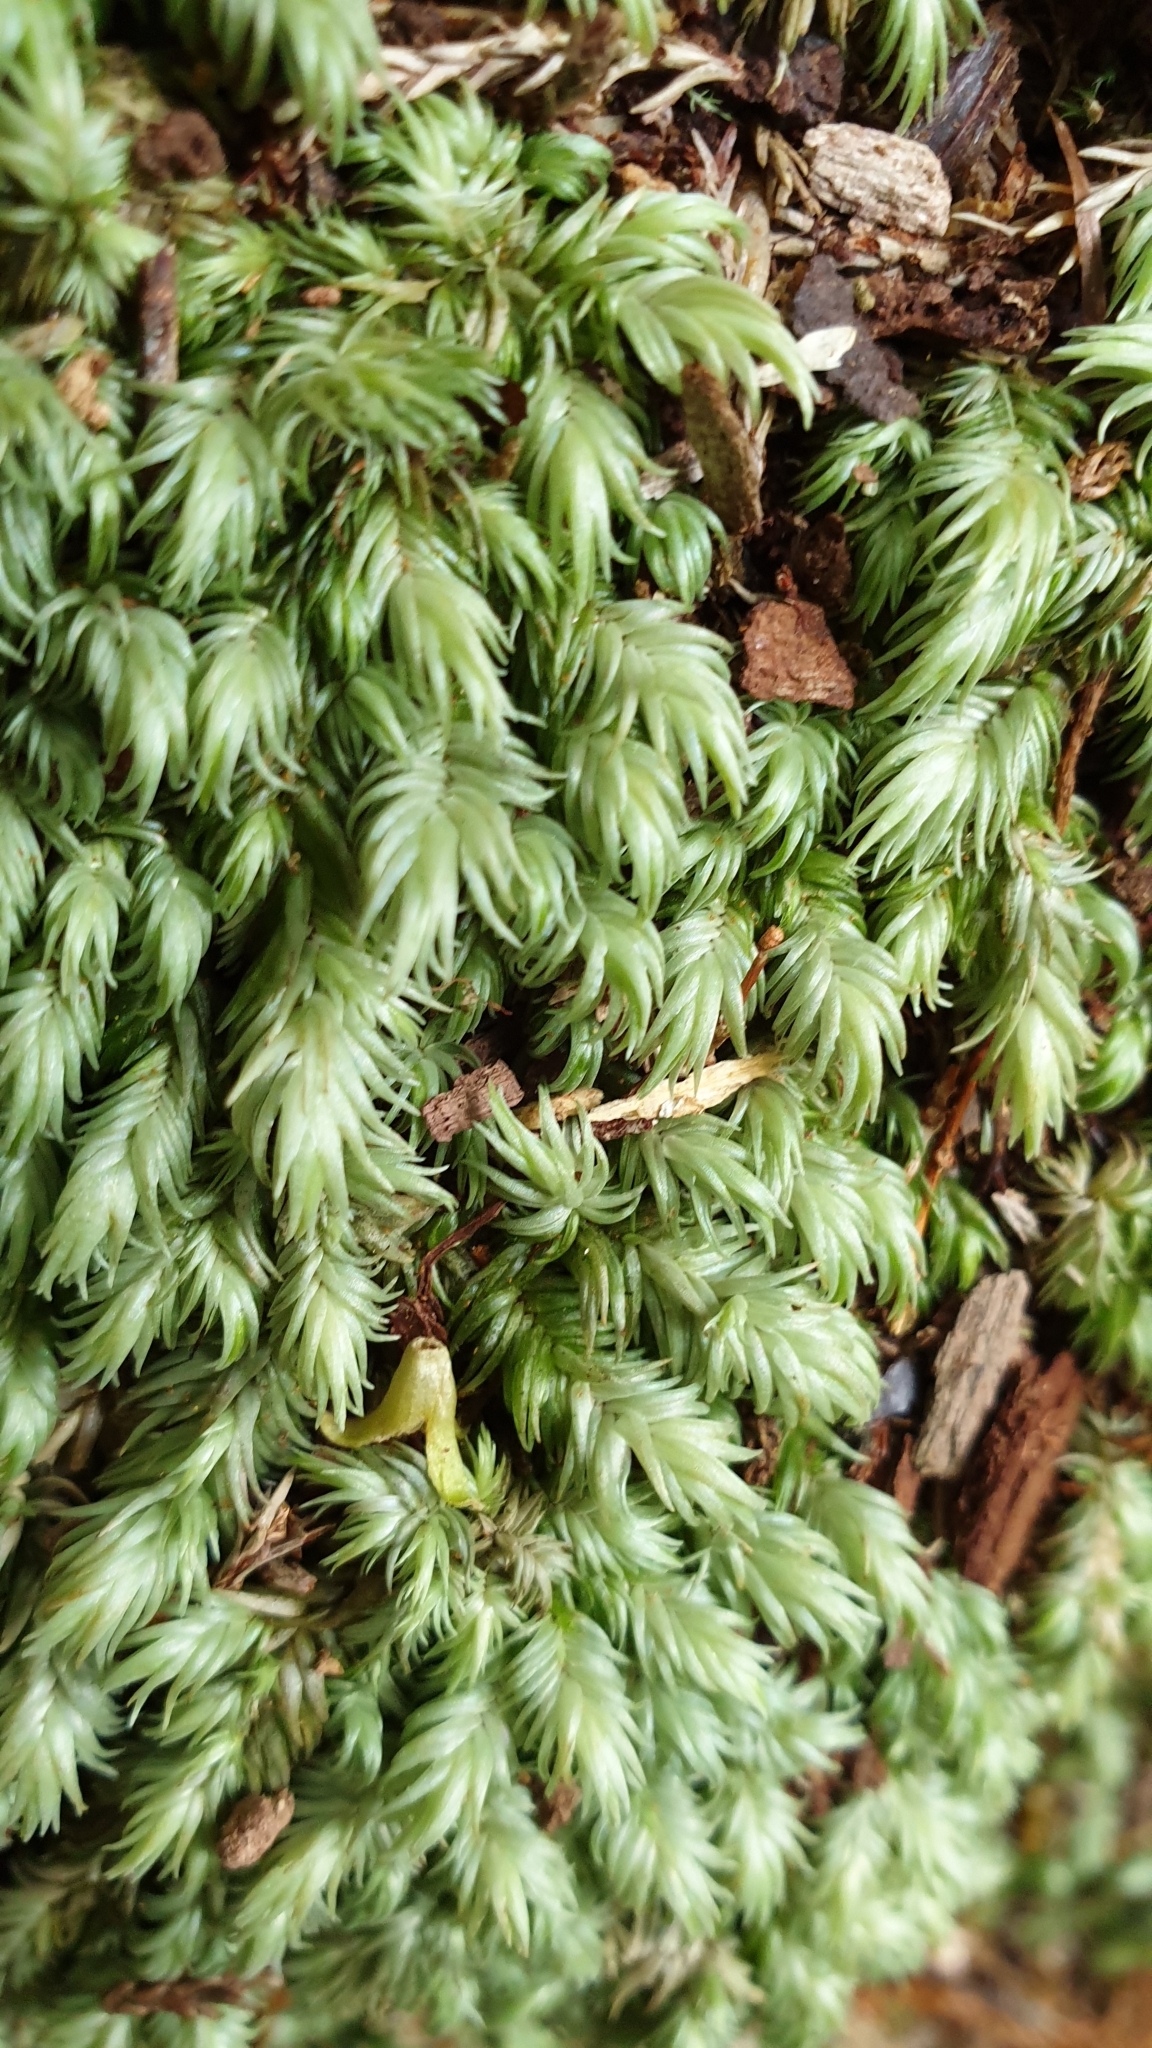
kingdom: Plantae
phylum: Bryophyta
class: Bryopsida
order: Dicranales
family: Leucobryaceae
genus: Leucobryum
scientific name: Leucobryum javense
